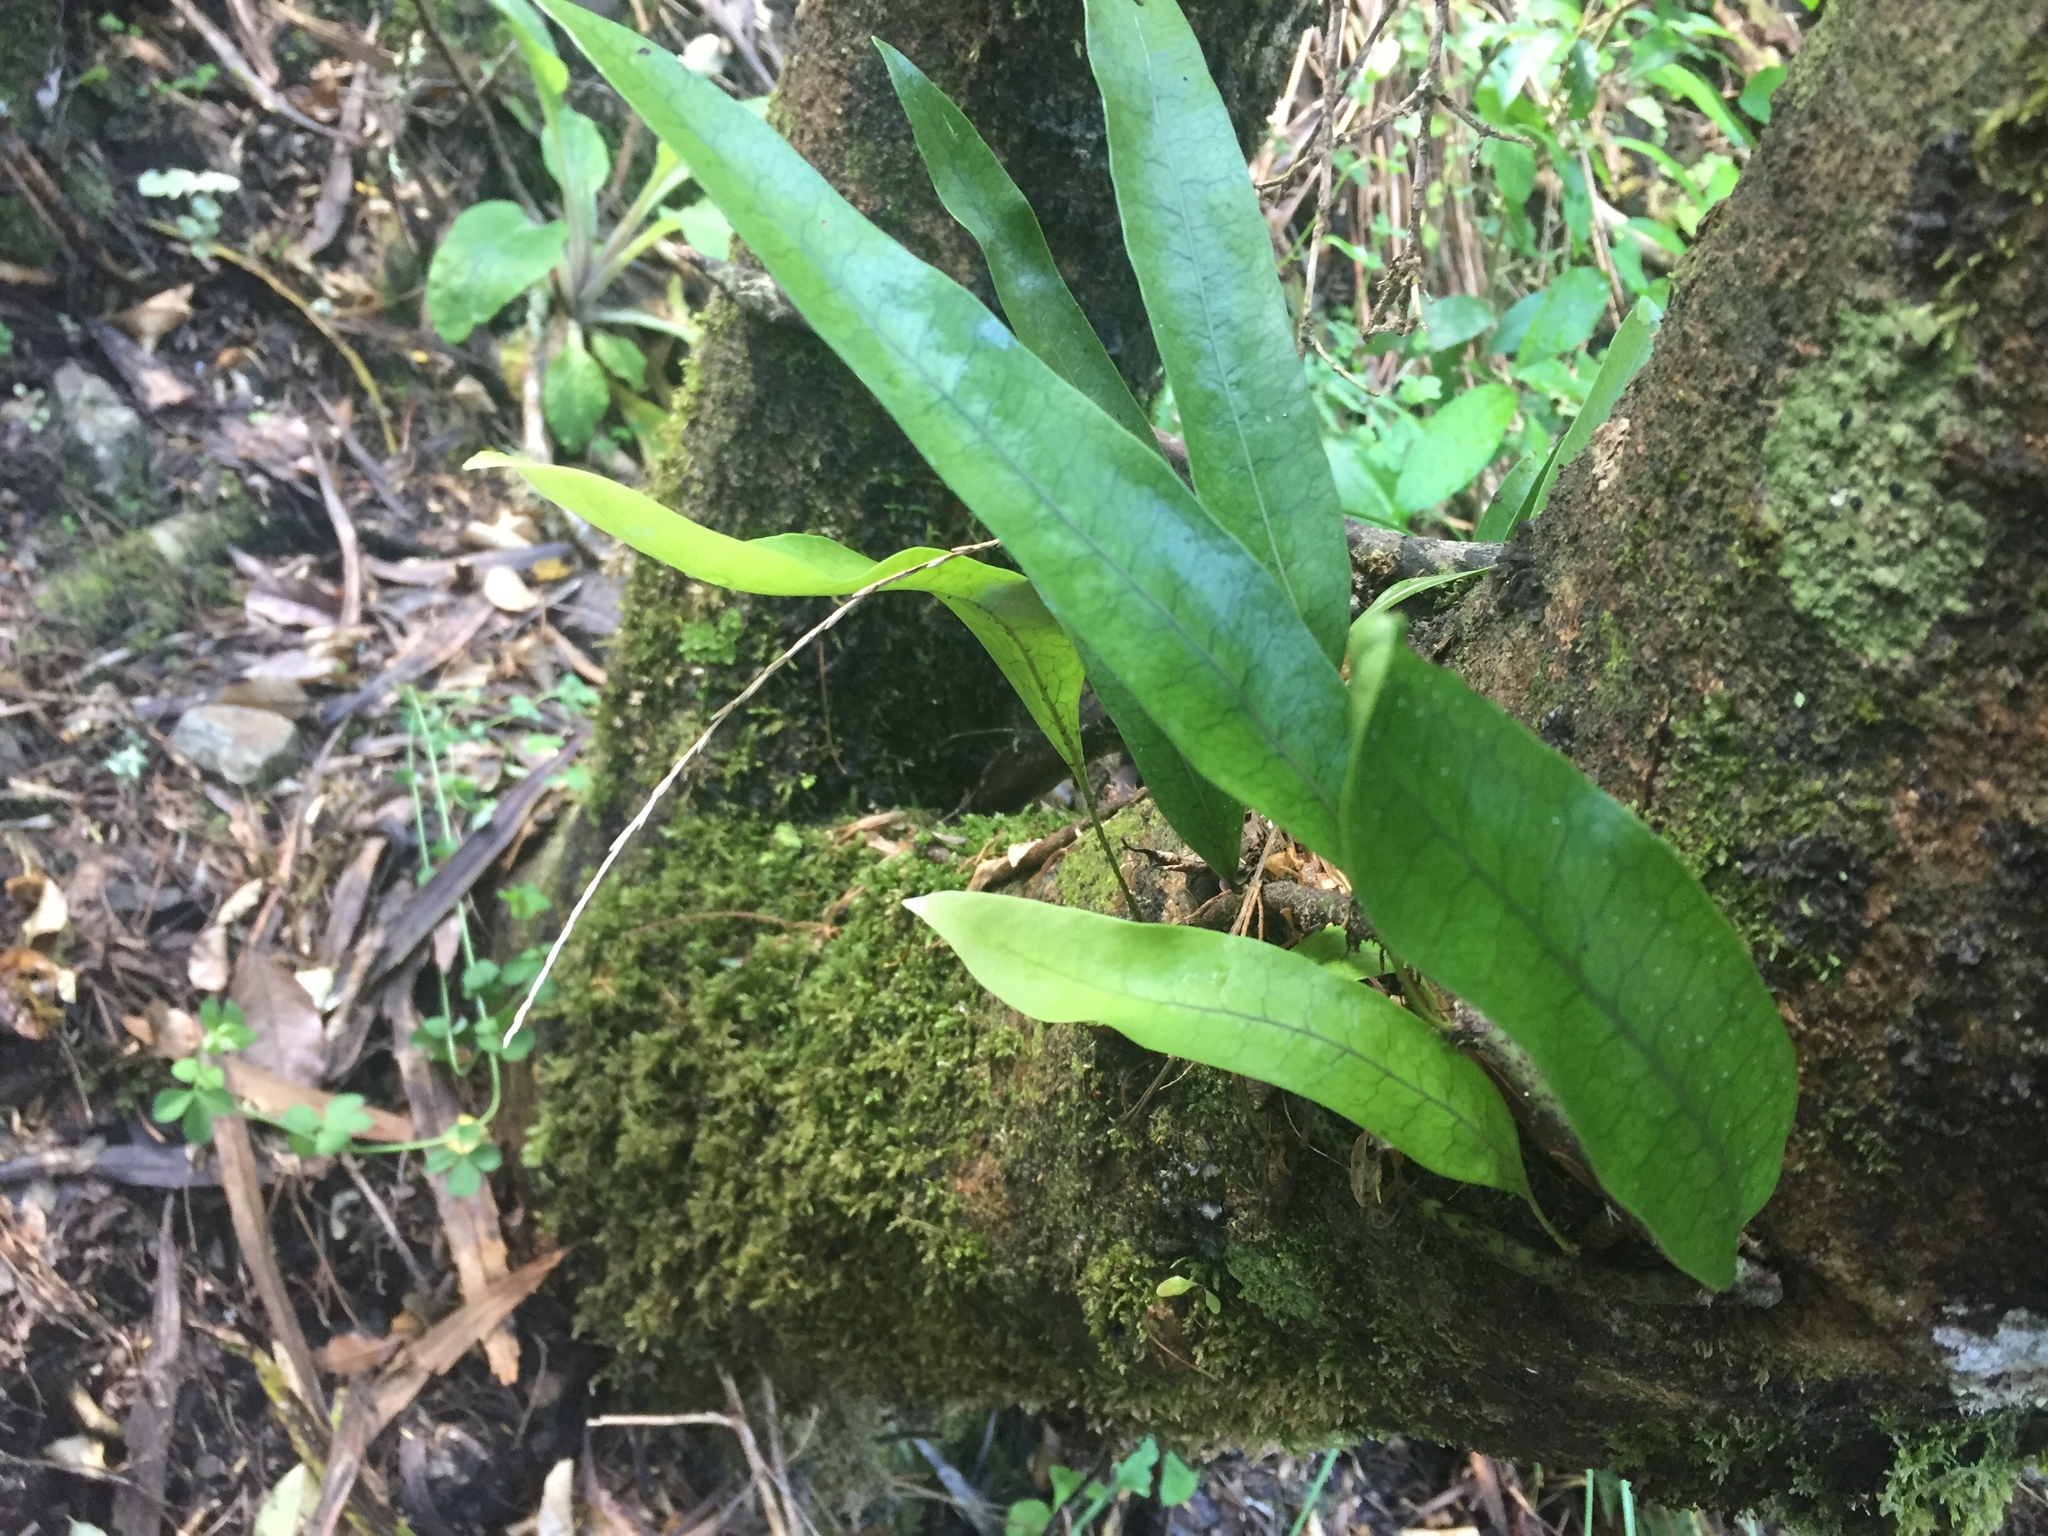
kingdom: Plantae
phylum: Tracheophyta
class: Polypodiopsida
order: Polypodiales
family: Polypodiaceae
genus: Lecanopteris
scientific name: Lecanopteris pustulata
